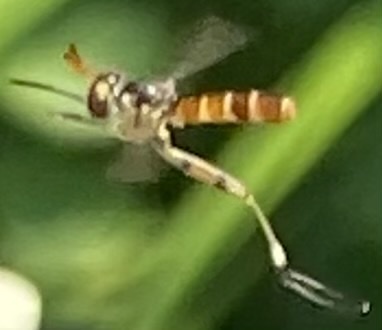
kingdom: Animalia
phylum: Arthropoda
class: Insecta
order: Diptera
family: Conopidae
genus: Stylogaster
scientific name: Stylogaster neglecta
